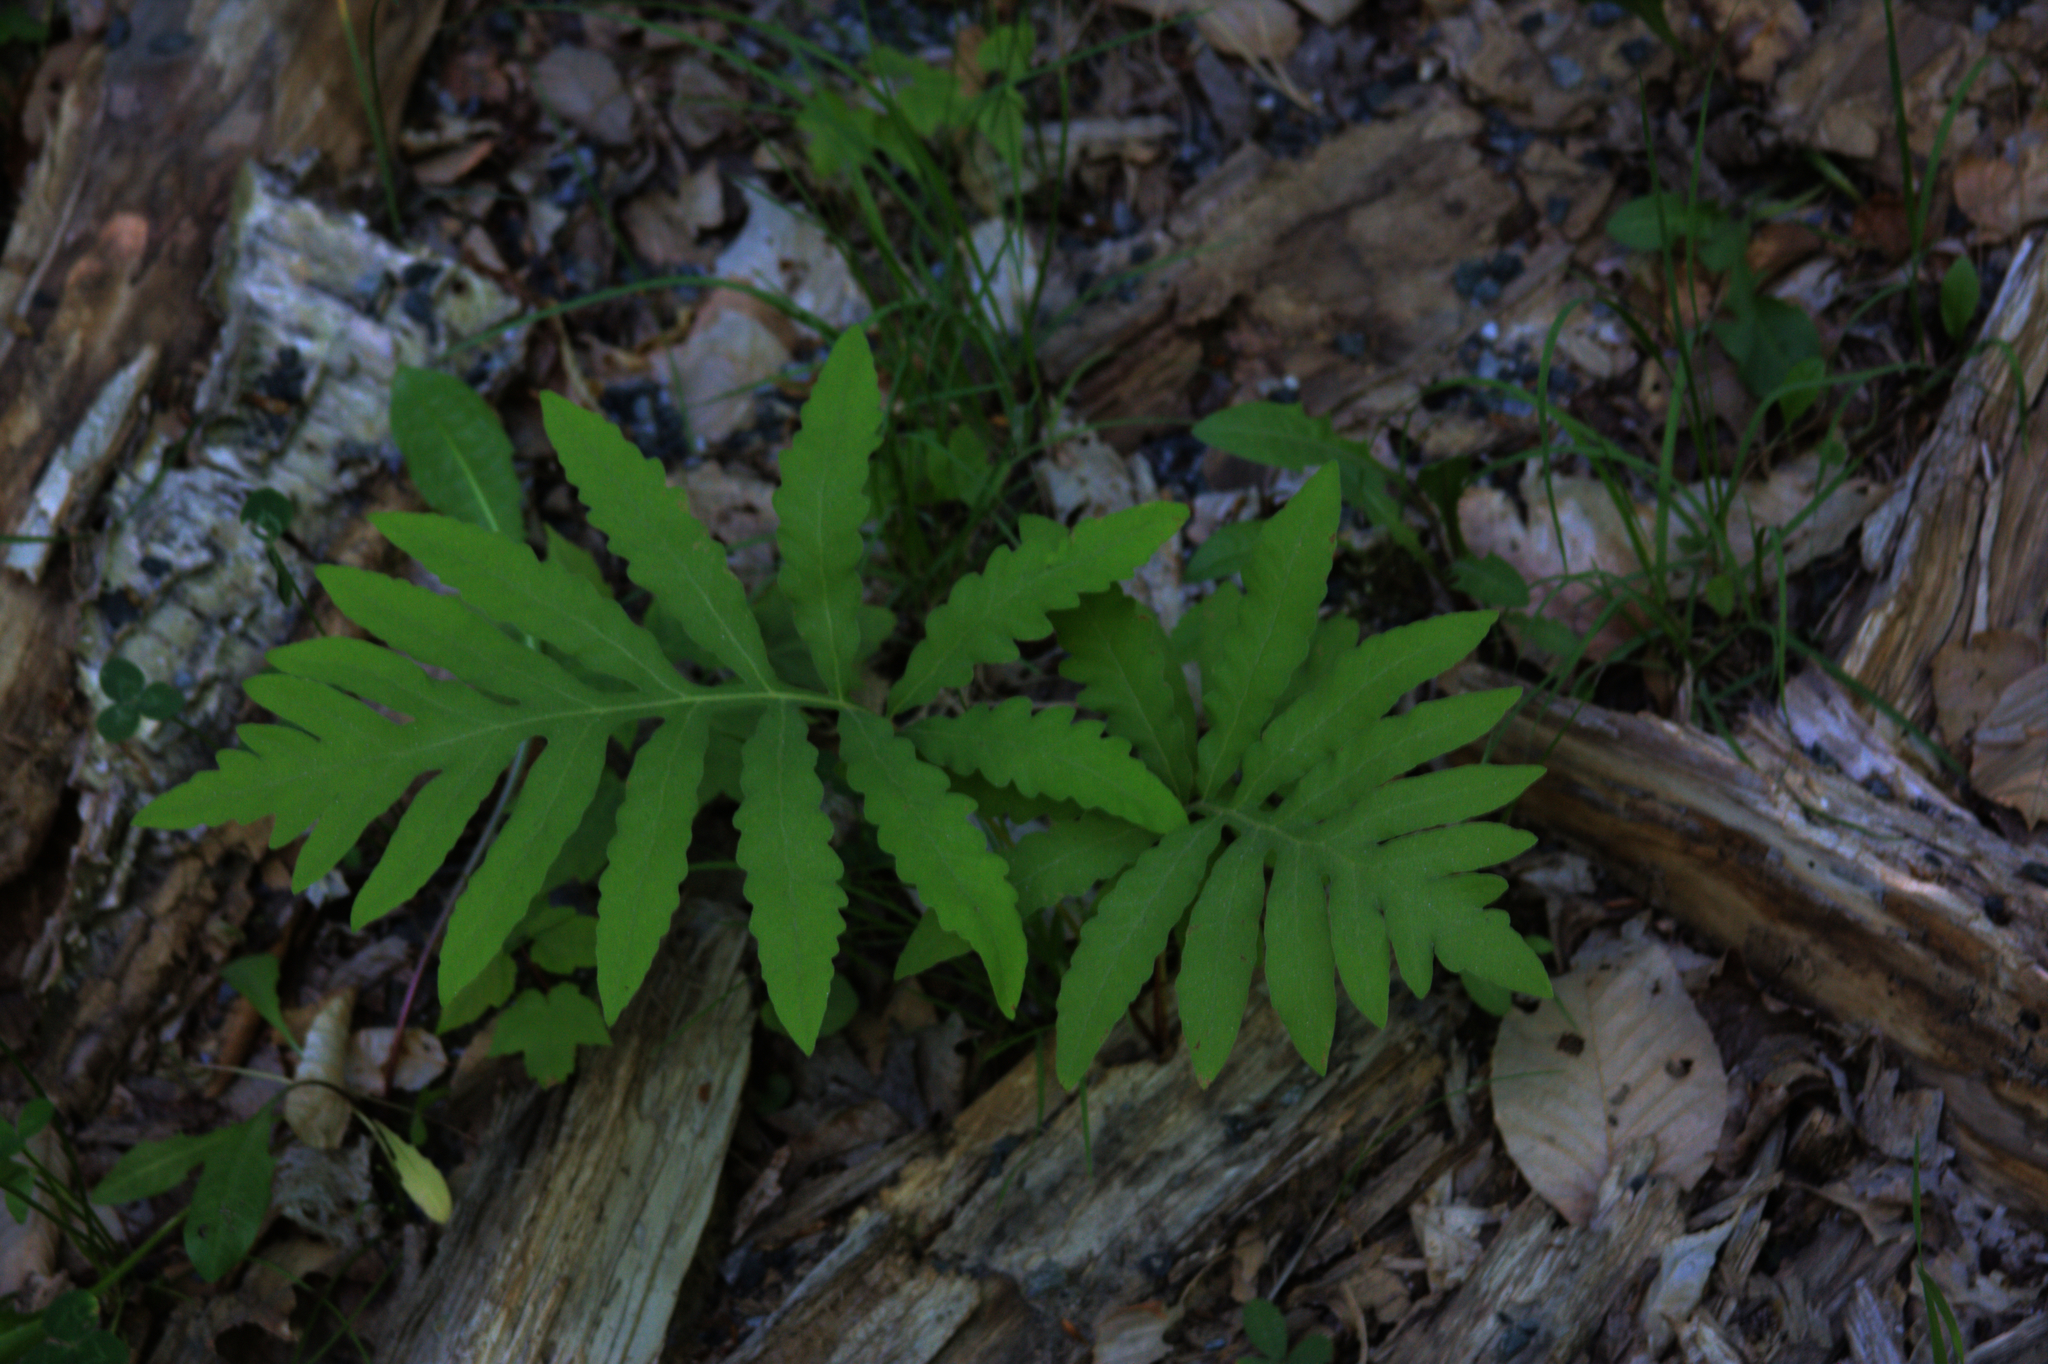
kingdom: Plantae
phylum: Tracheophyta
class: Polypodiopsida
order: Polypodiales
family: Onocleaceae
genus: Onoclea
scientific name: Onoclea sensibilis
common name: Sensitive fern
